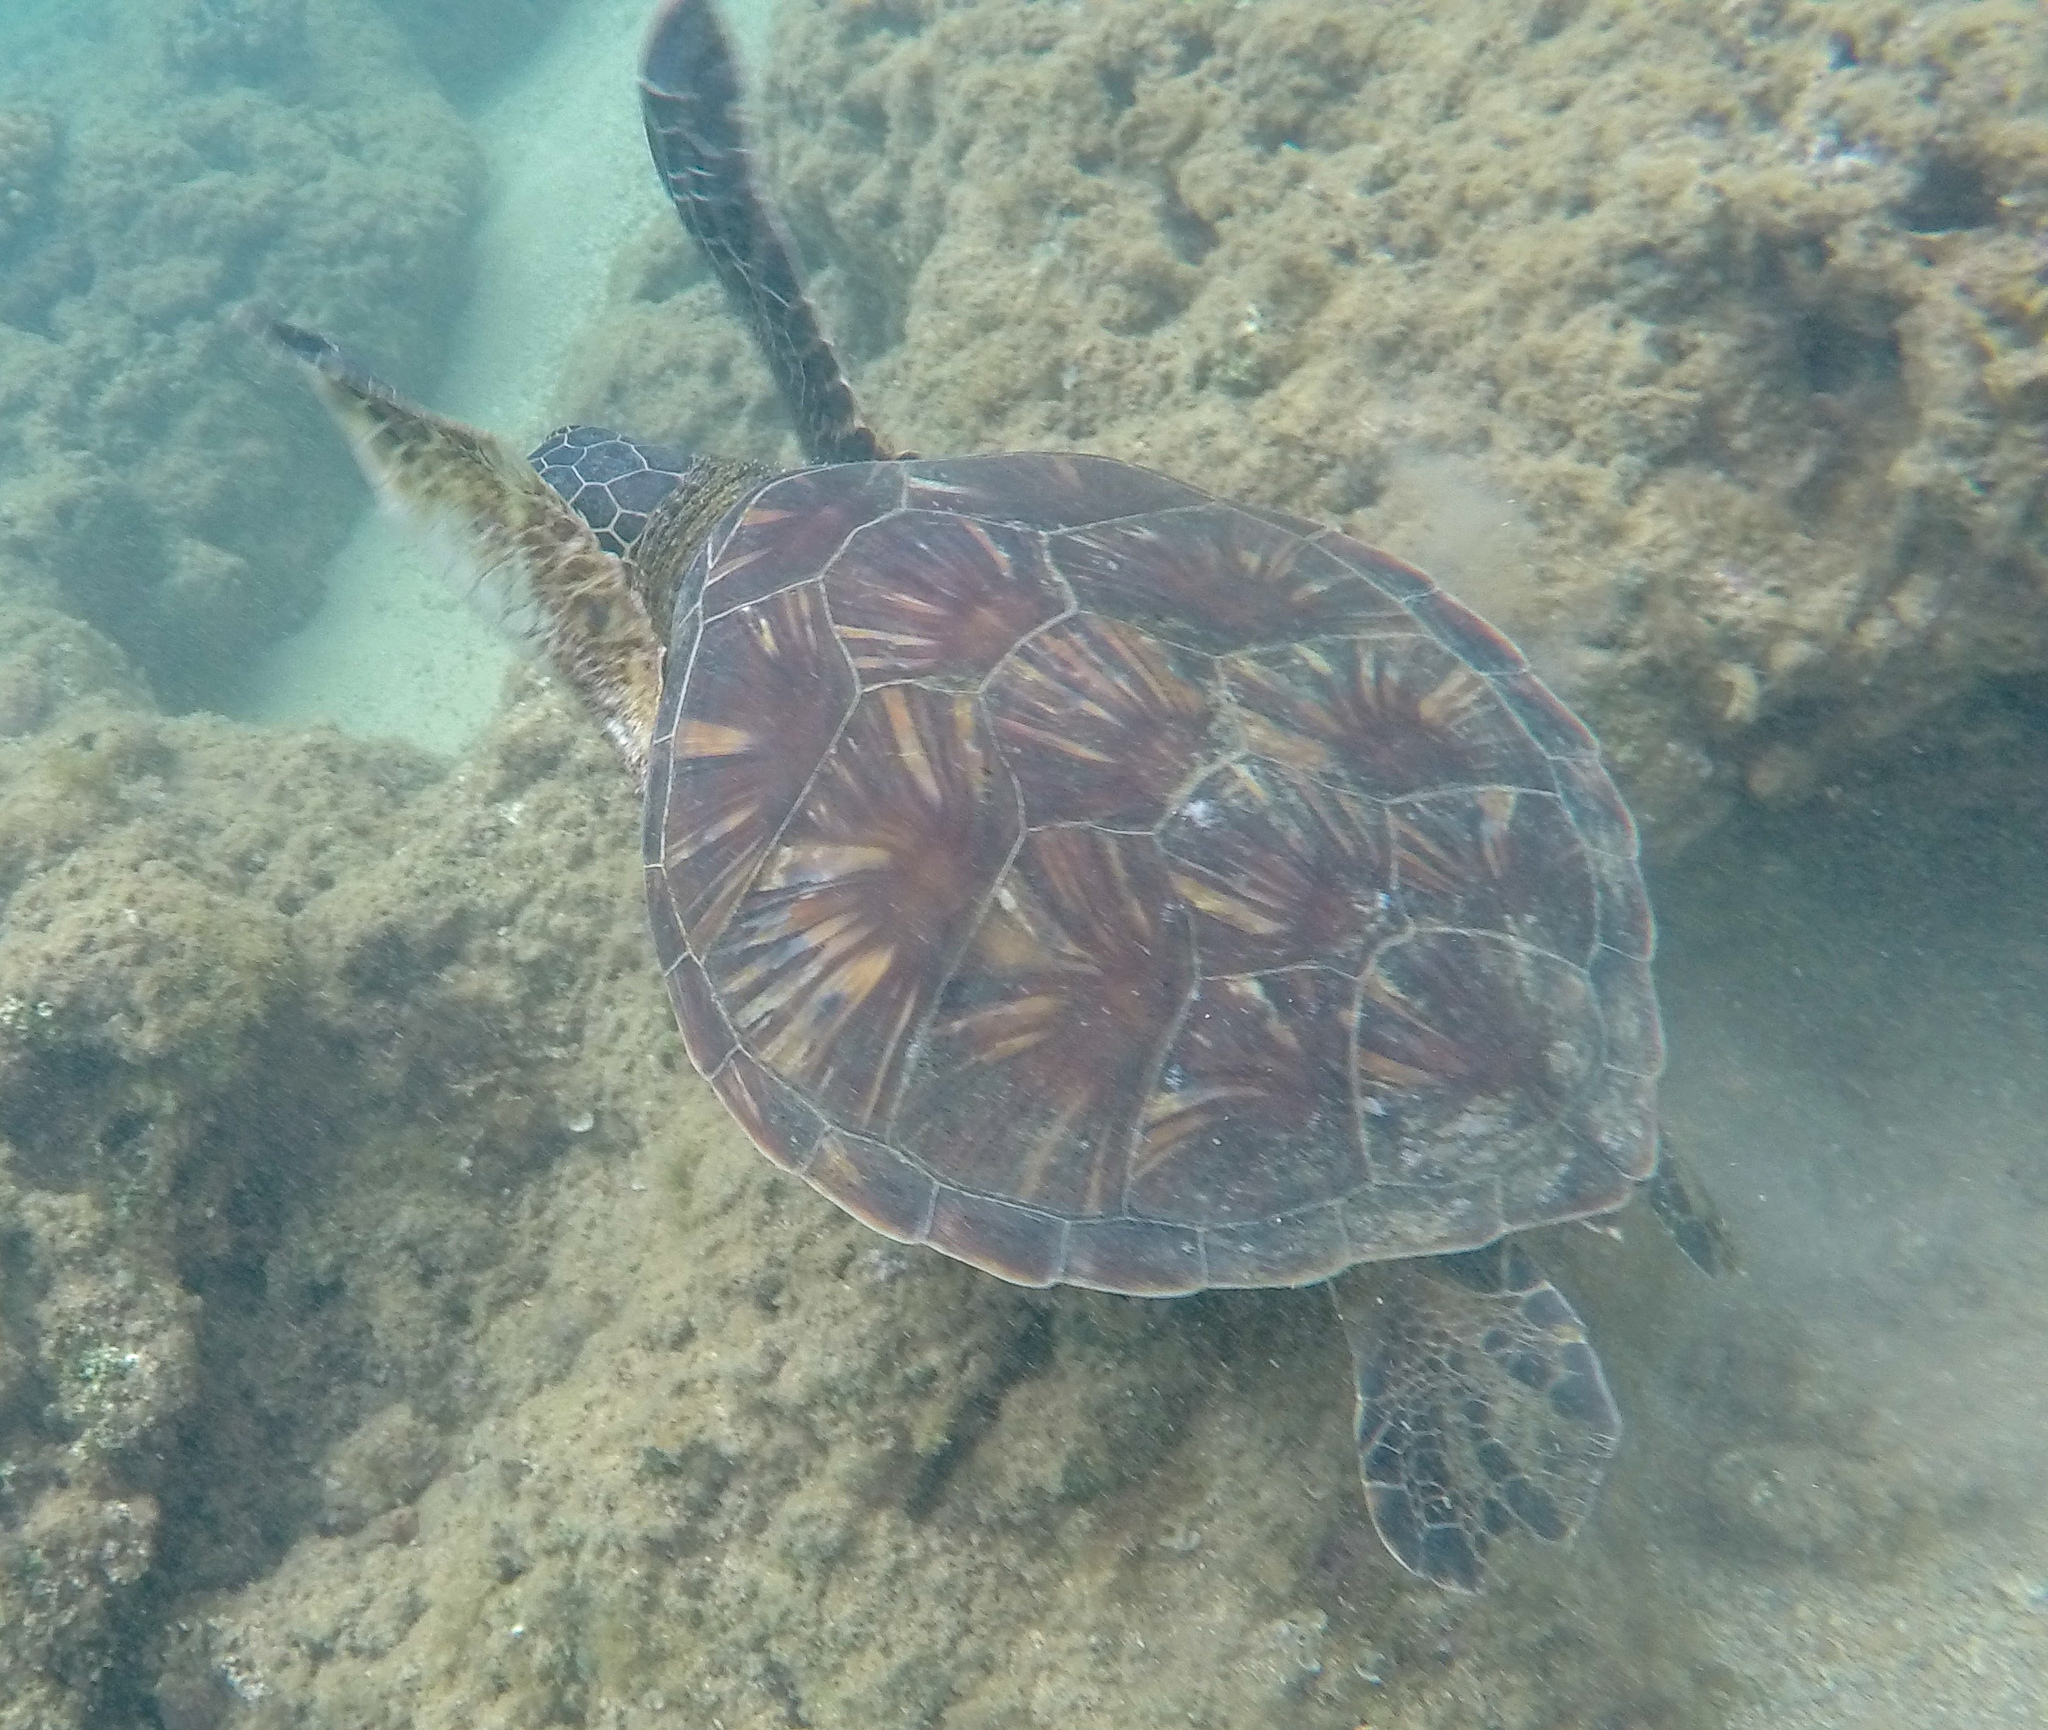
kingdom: Animalia
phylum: Chordata
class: Testudines
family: Cheloniidae
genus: Chelonia
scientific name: Chelonia mydas
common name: Green turtle
